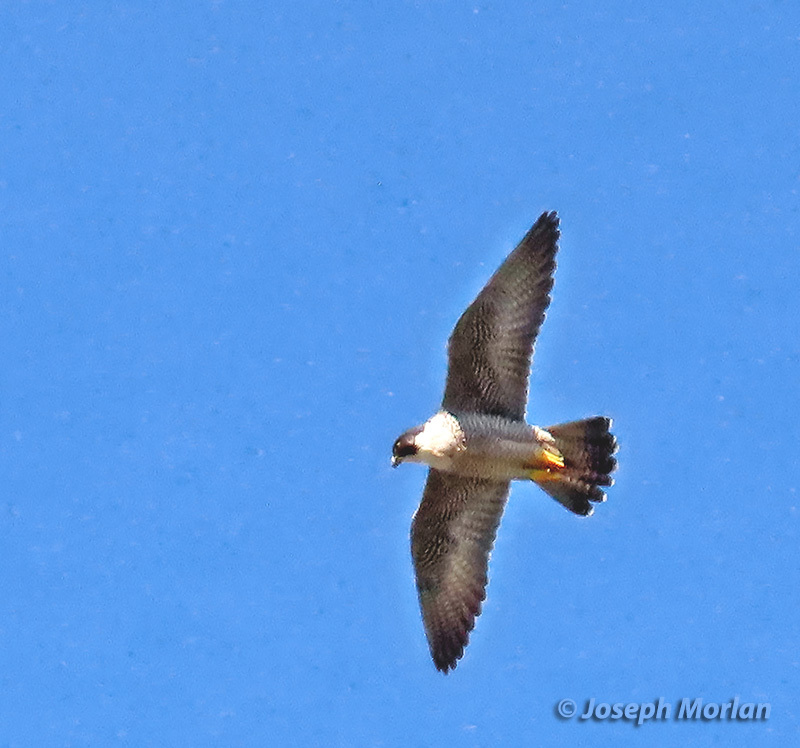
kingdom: Animalia
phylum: Chordata
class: Aves
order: Falconiformes
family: Falconidae
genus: Falco
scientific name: Falco peregrinus
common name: Peregrine falcon
